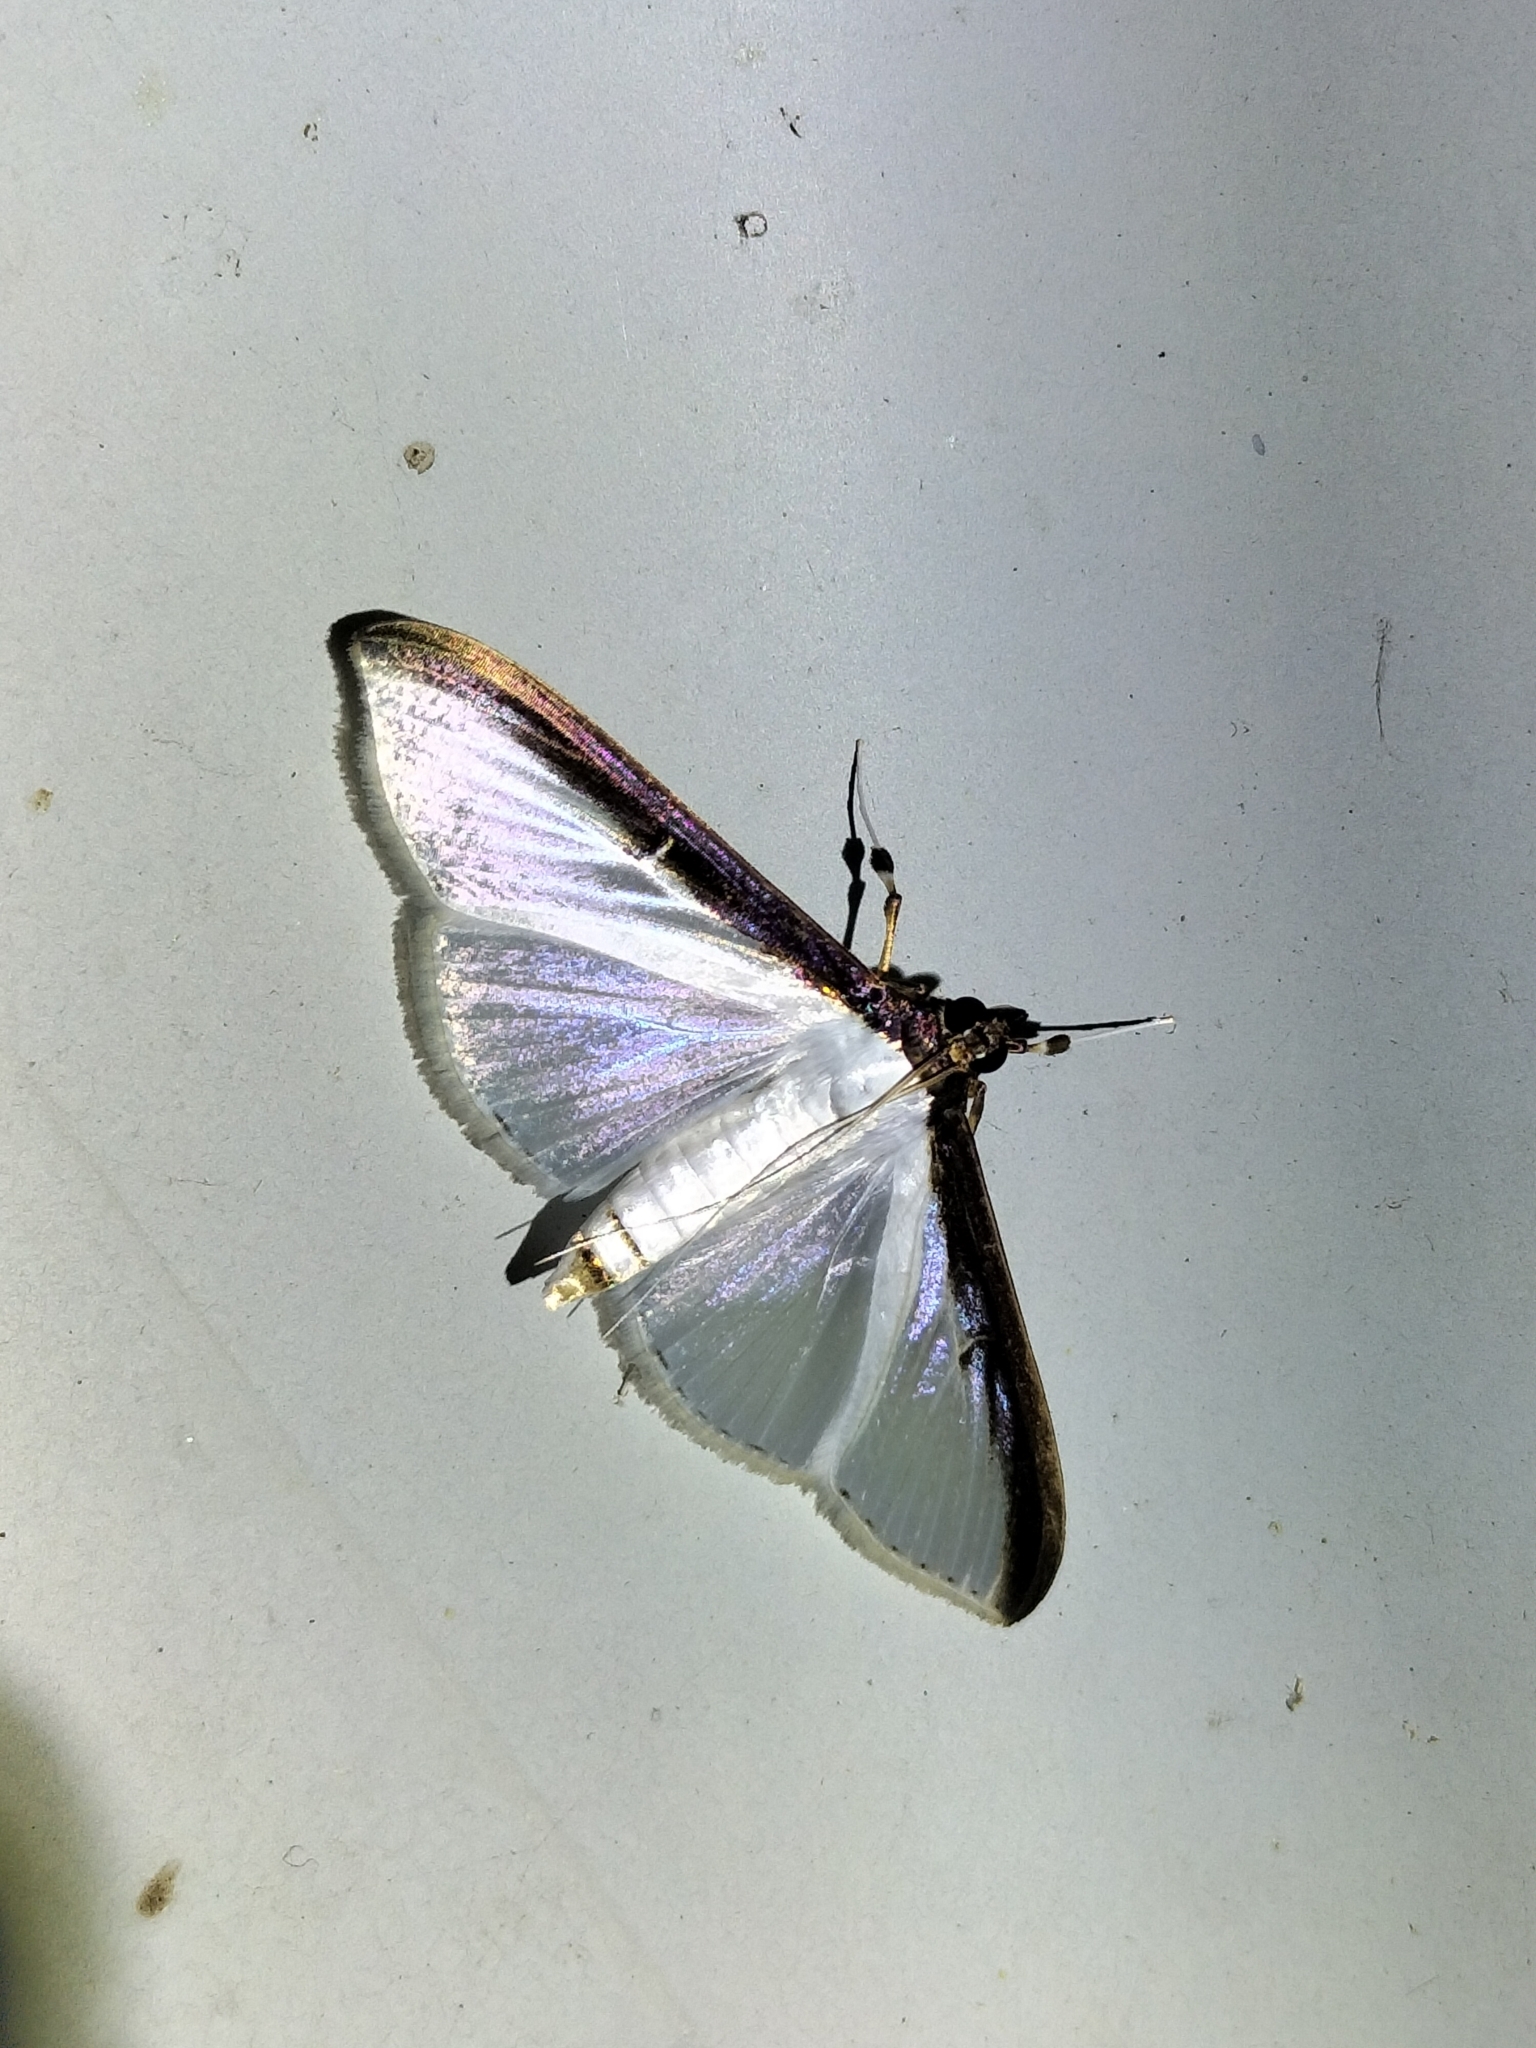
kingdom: Animalia
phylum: Arthropoda
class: Insecta
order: Lepidoptera
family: Crambidae
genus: Cydalima
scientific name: Cydalima laticostalis
